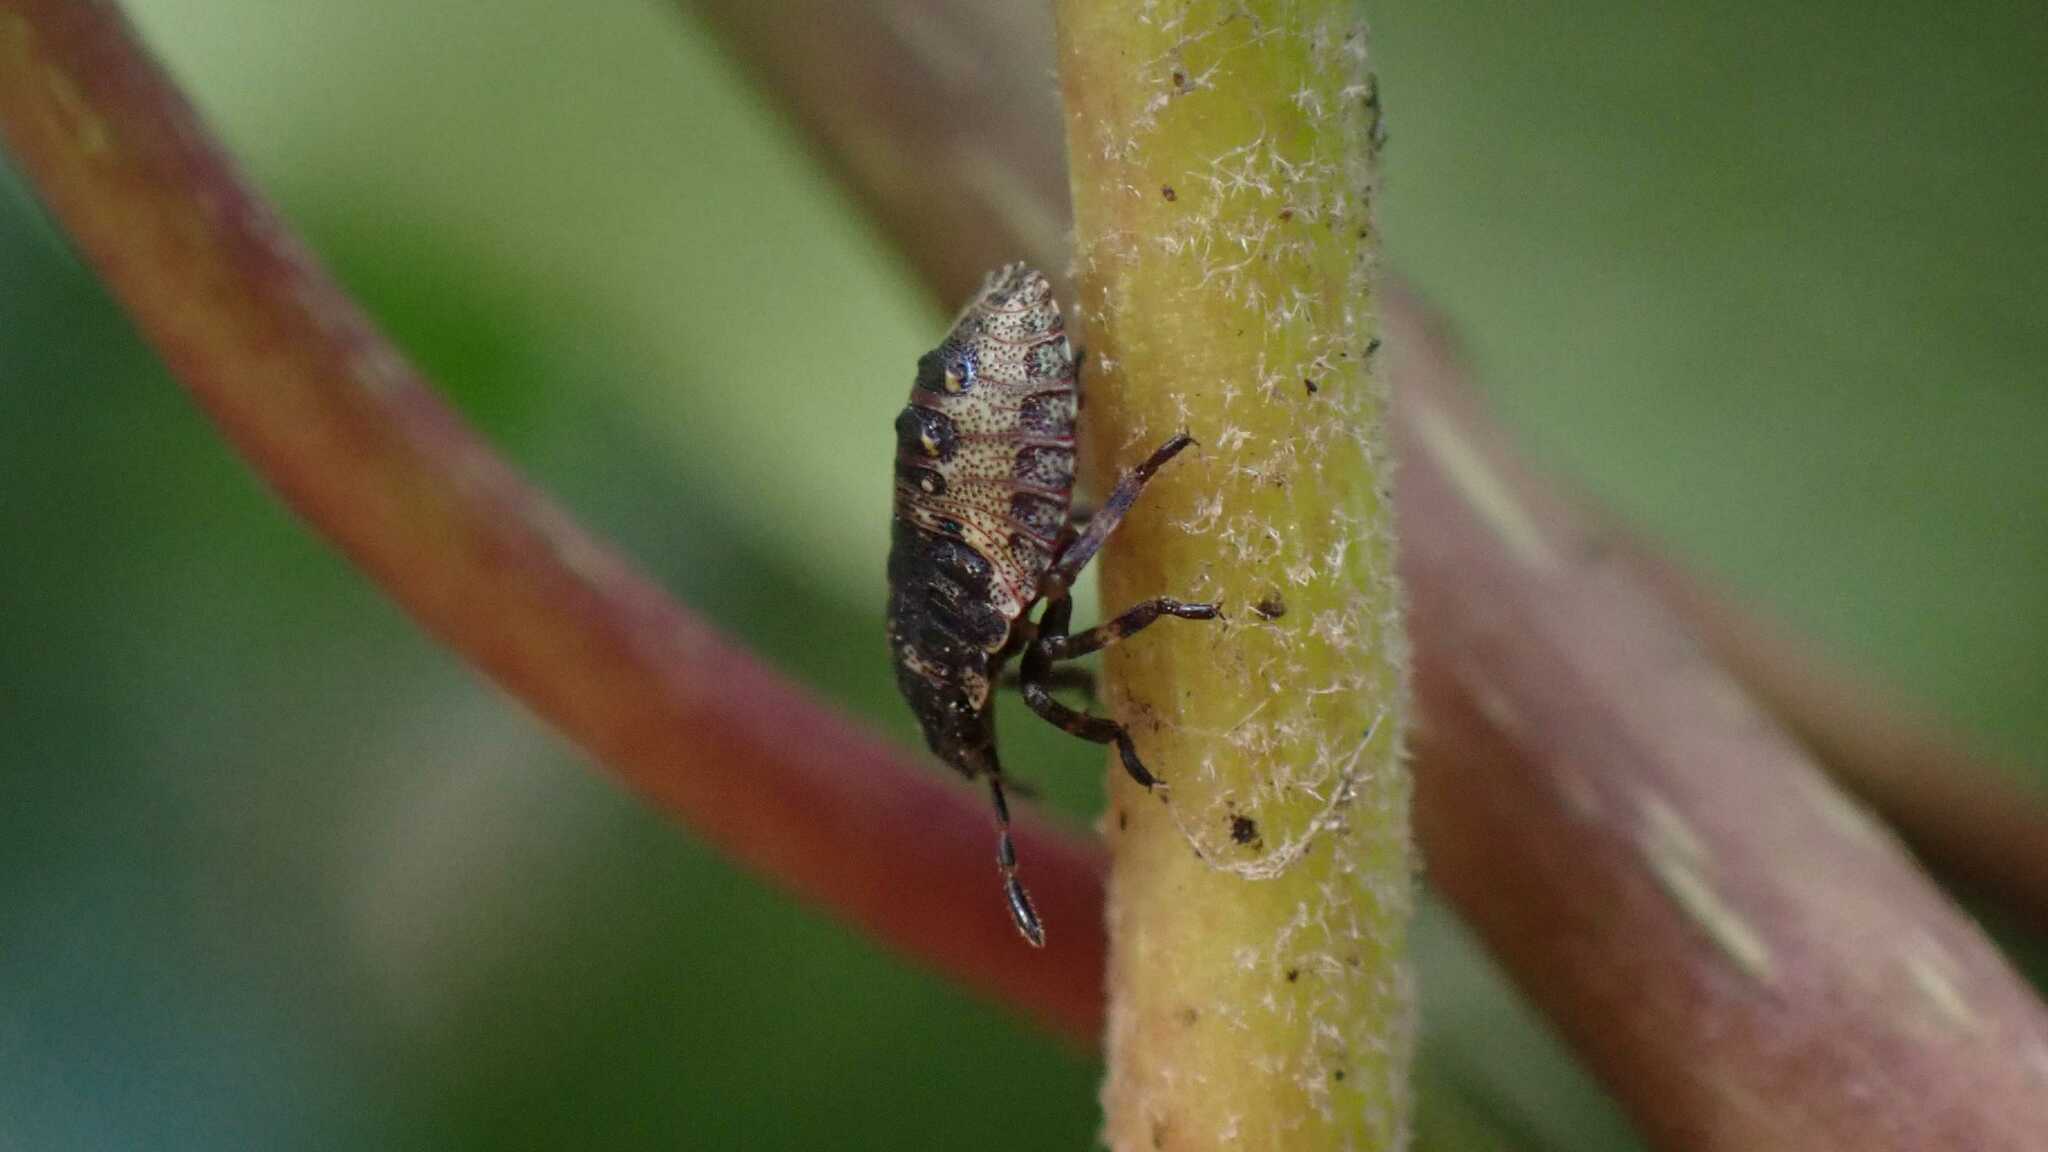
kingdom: Animalia
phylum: Arthropoda
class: Insecta
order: Hemiptera
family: Pentatomidae
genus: Pentatoma
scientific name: Pentatoma rufipes
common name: Forest bug
